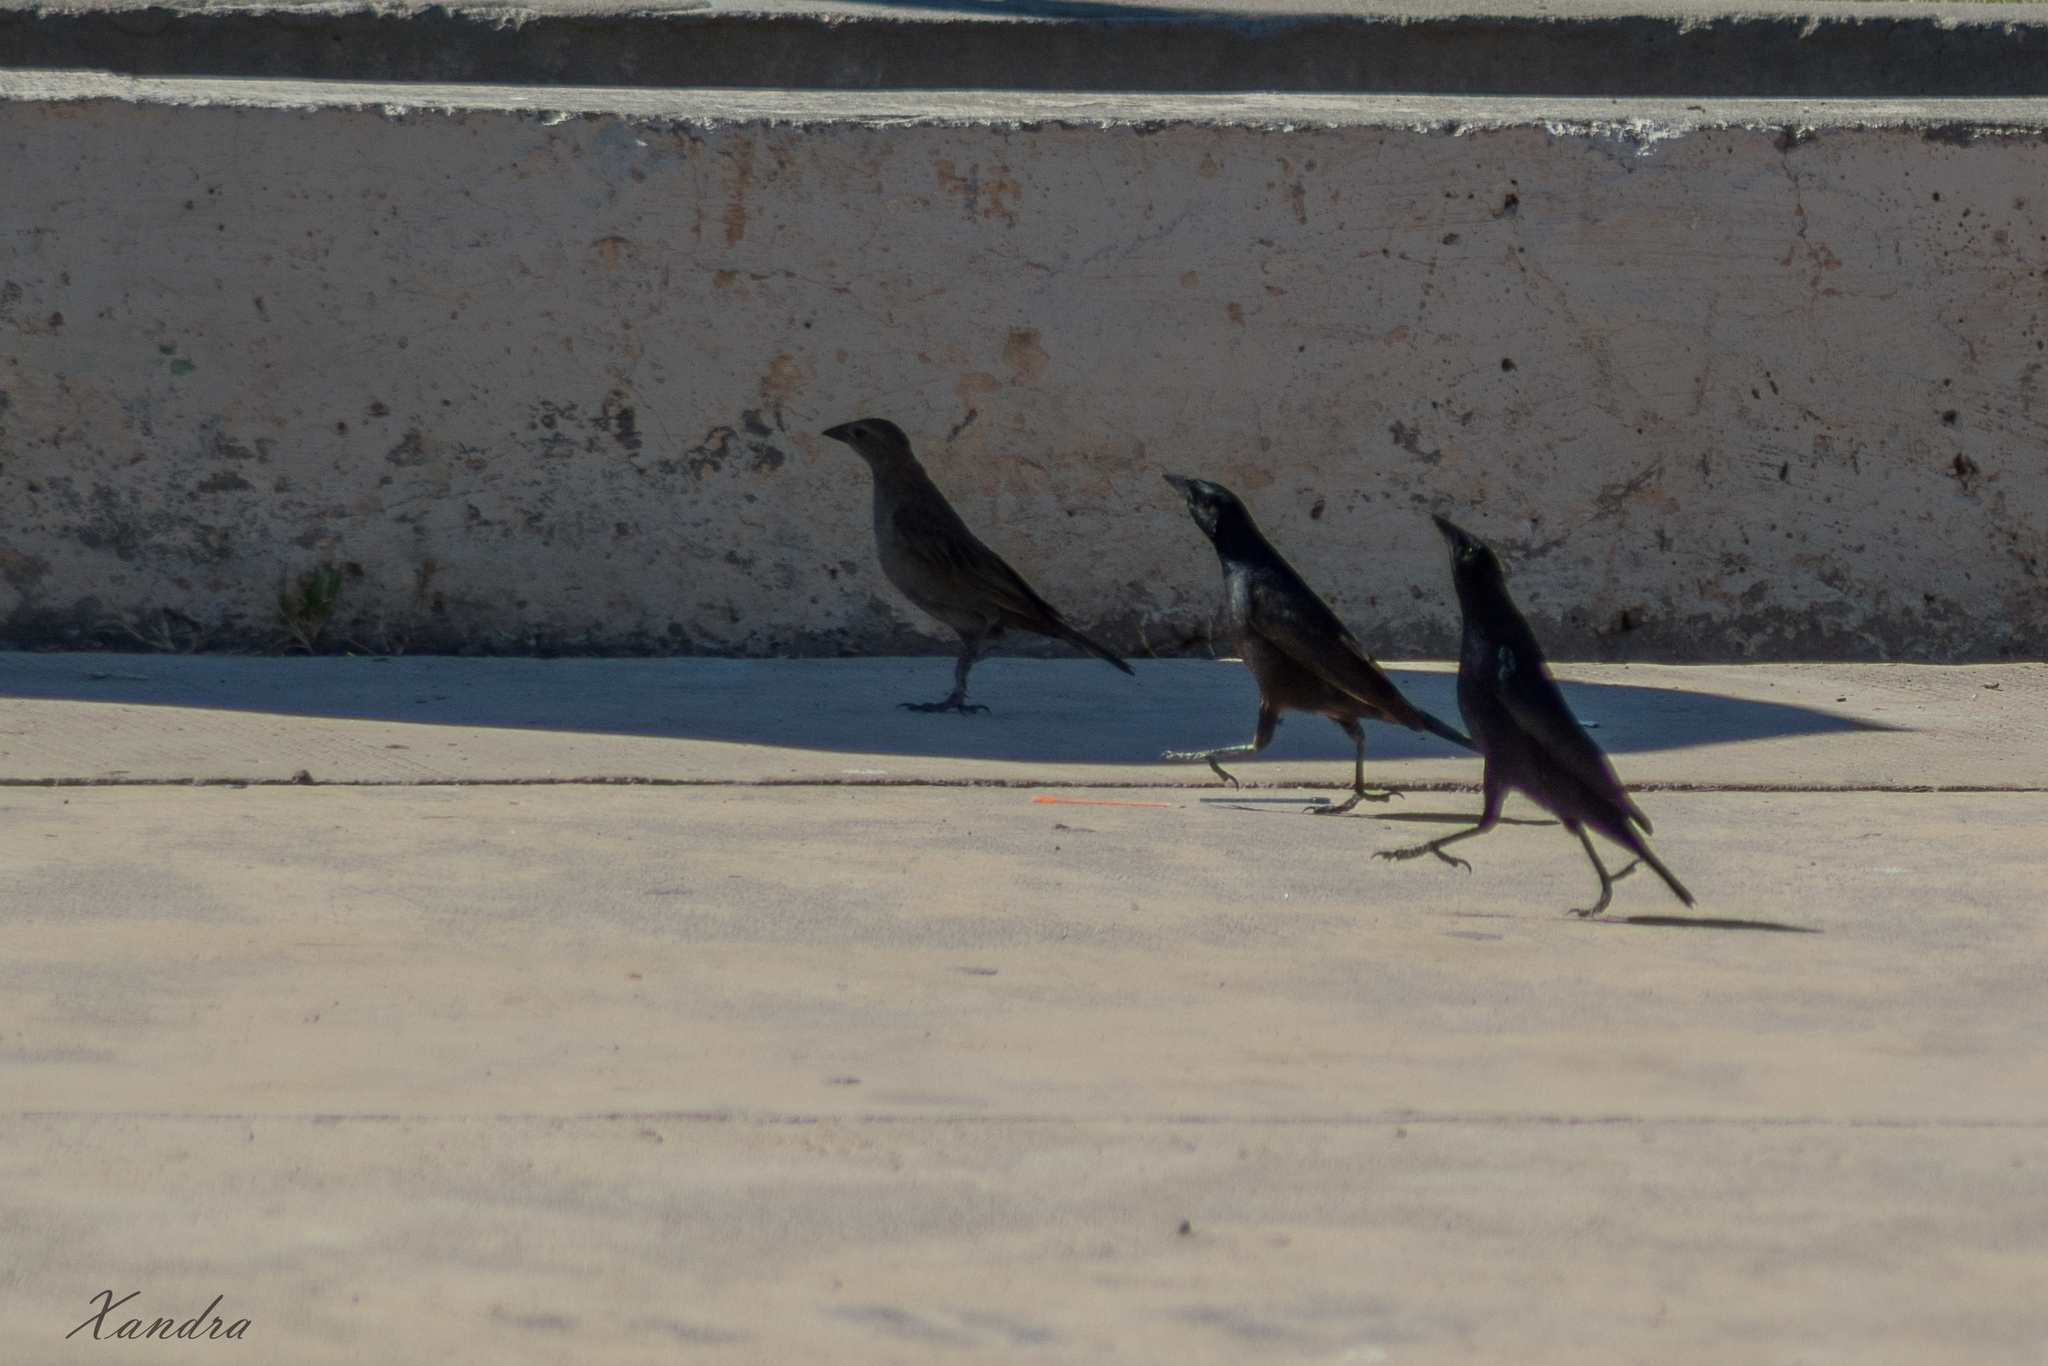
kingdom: Animalia
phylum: Chordata
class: Aves
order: Passeriformes
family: Icteridae
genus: Molothrus
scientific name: Molothrus bonariensis
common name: Shiny cowbird
